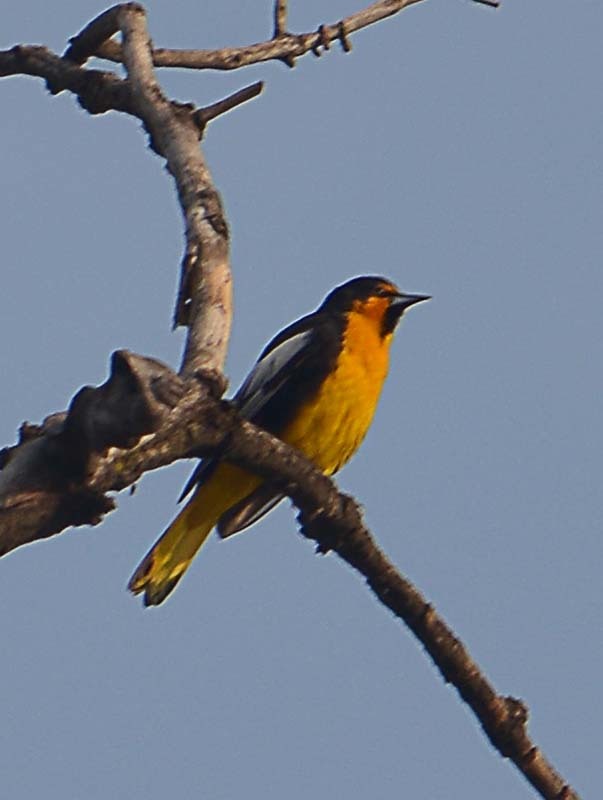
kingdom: Animalia
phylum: Chordata
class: Aves
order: Passeriformes
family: Icteridae
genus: Icterus
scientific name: Icterus abeillei
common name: Black-backed oriole
